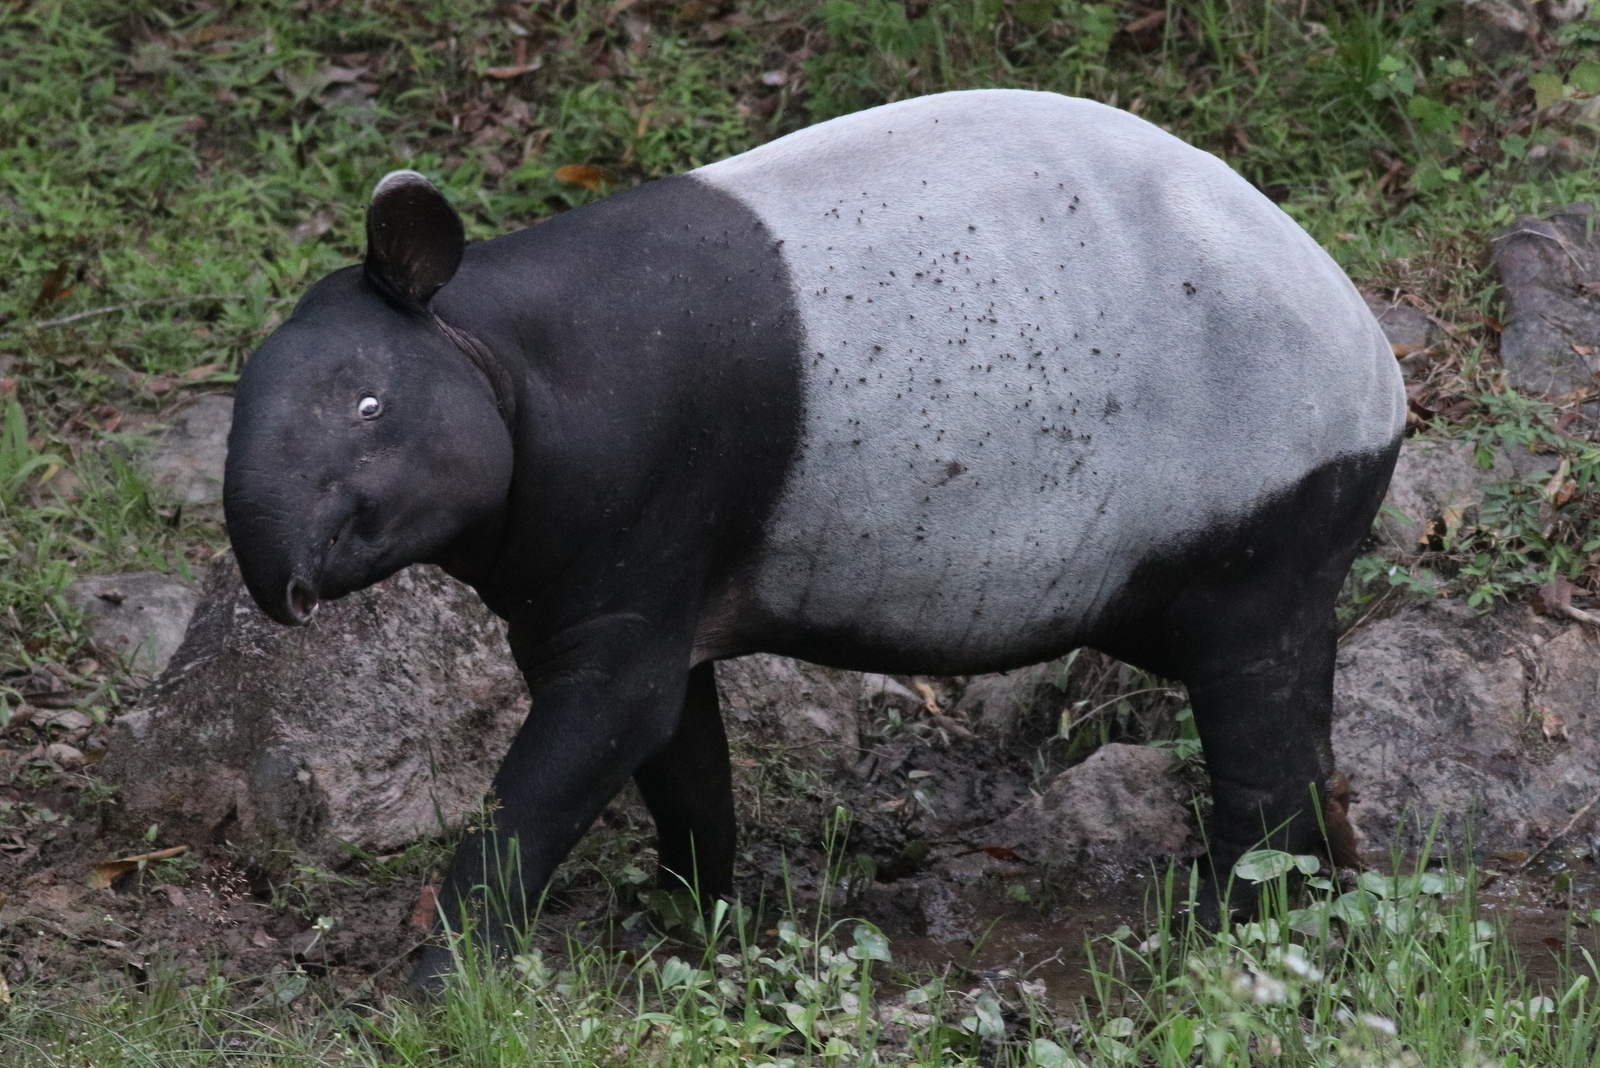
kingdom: Animalia
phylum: Chordata
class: Mammalia
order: Perissodactyla
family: Tapiridae
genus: Acrocodia
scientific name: Acrocodia indica
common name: Malayan tapir
